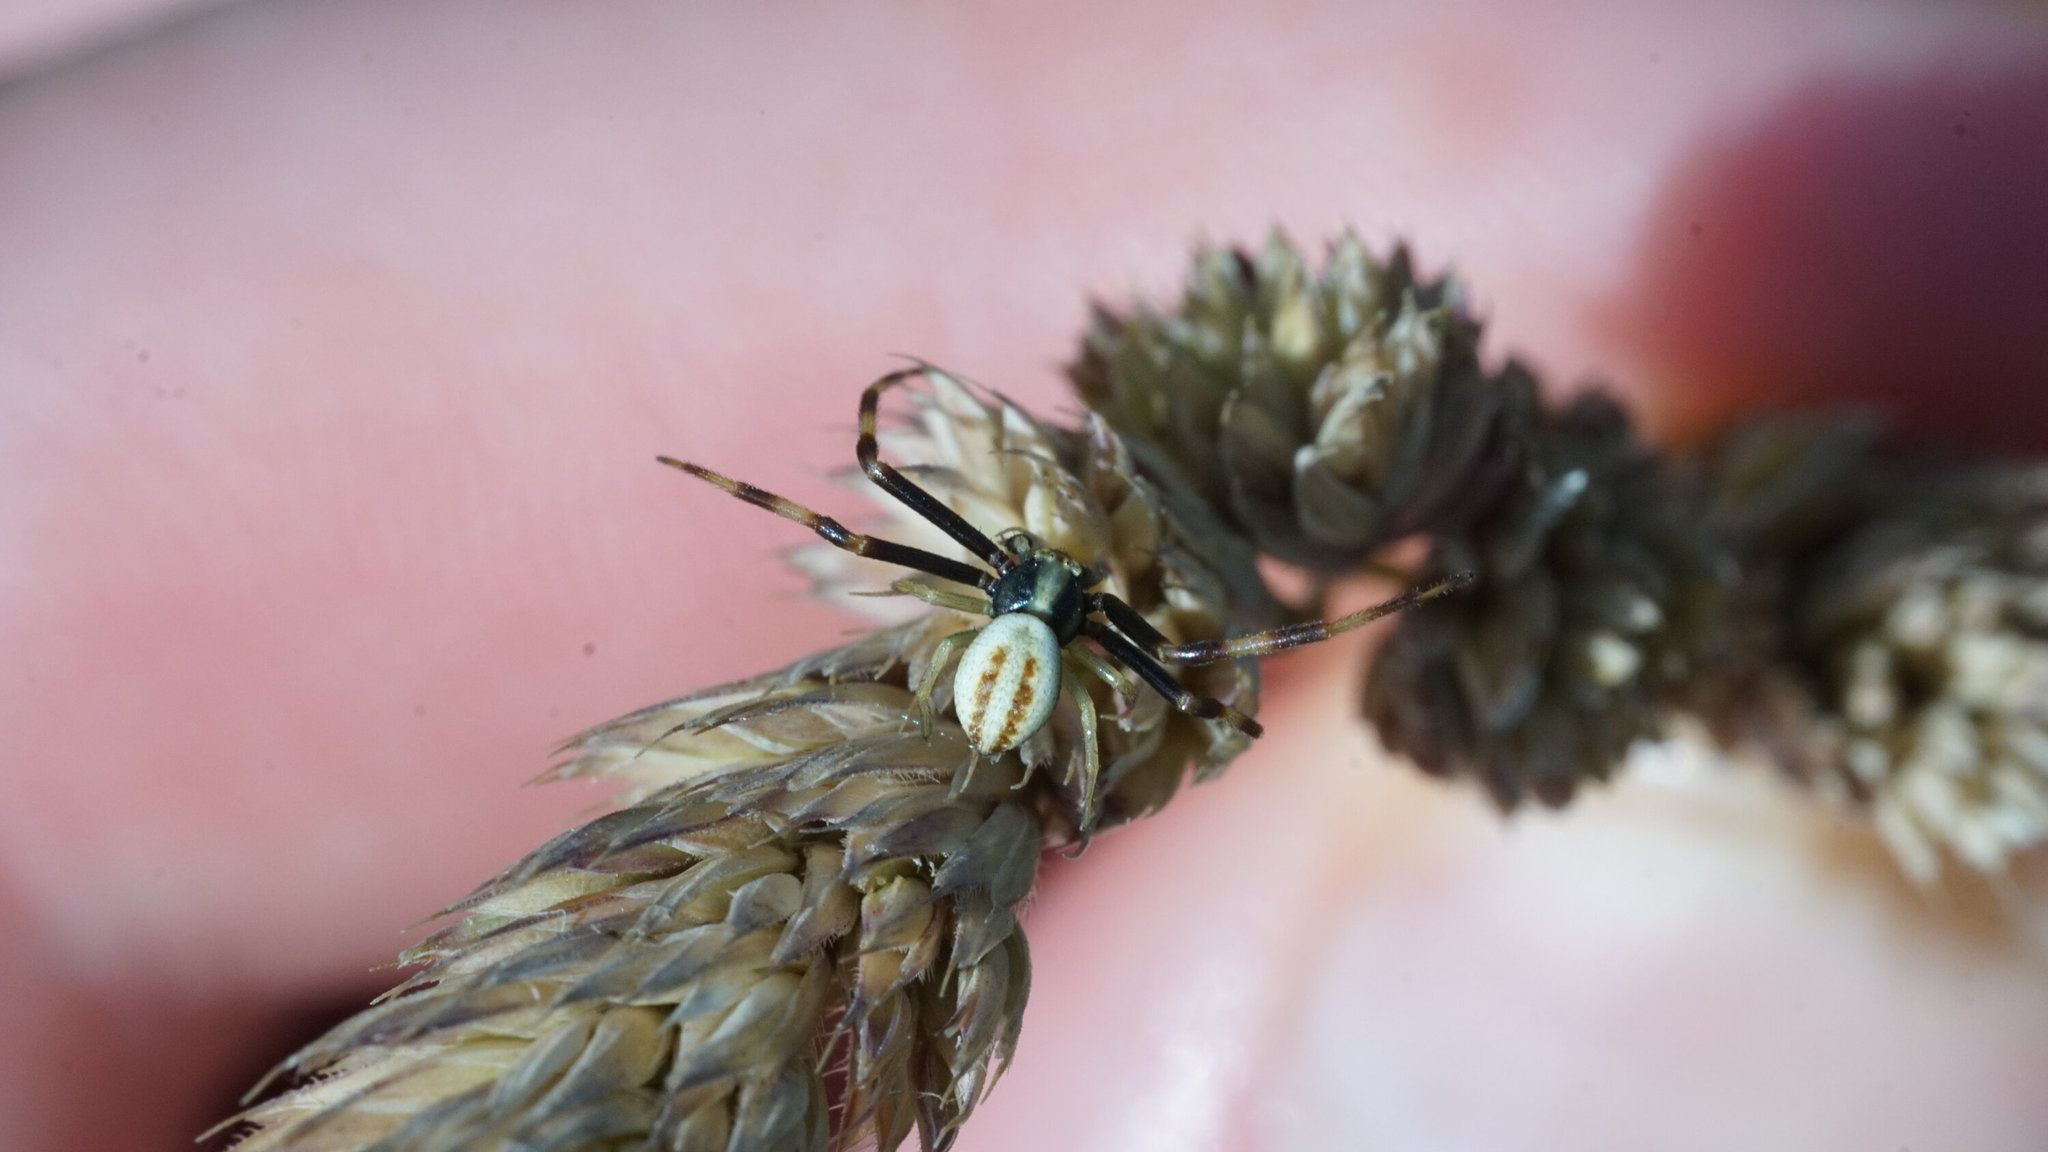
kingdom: Animalia
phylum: Arthropoda
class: Arachnida
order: Araneae
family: Thomisidae
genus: Misumena
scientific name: Misumena vatia
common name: Goldenrod crab spider
